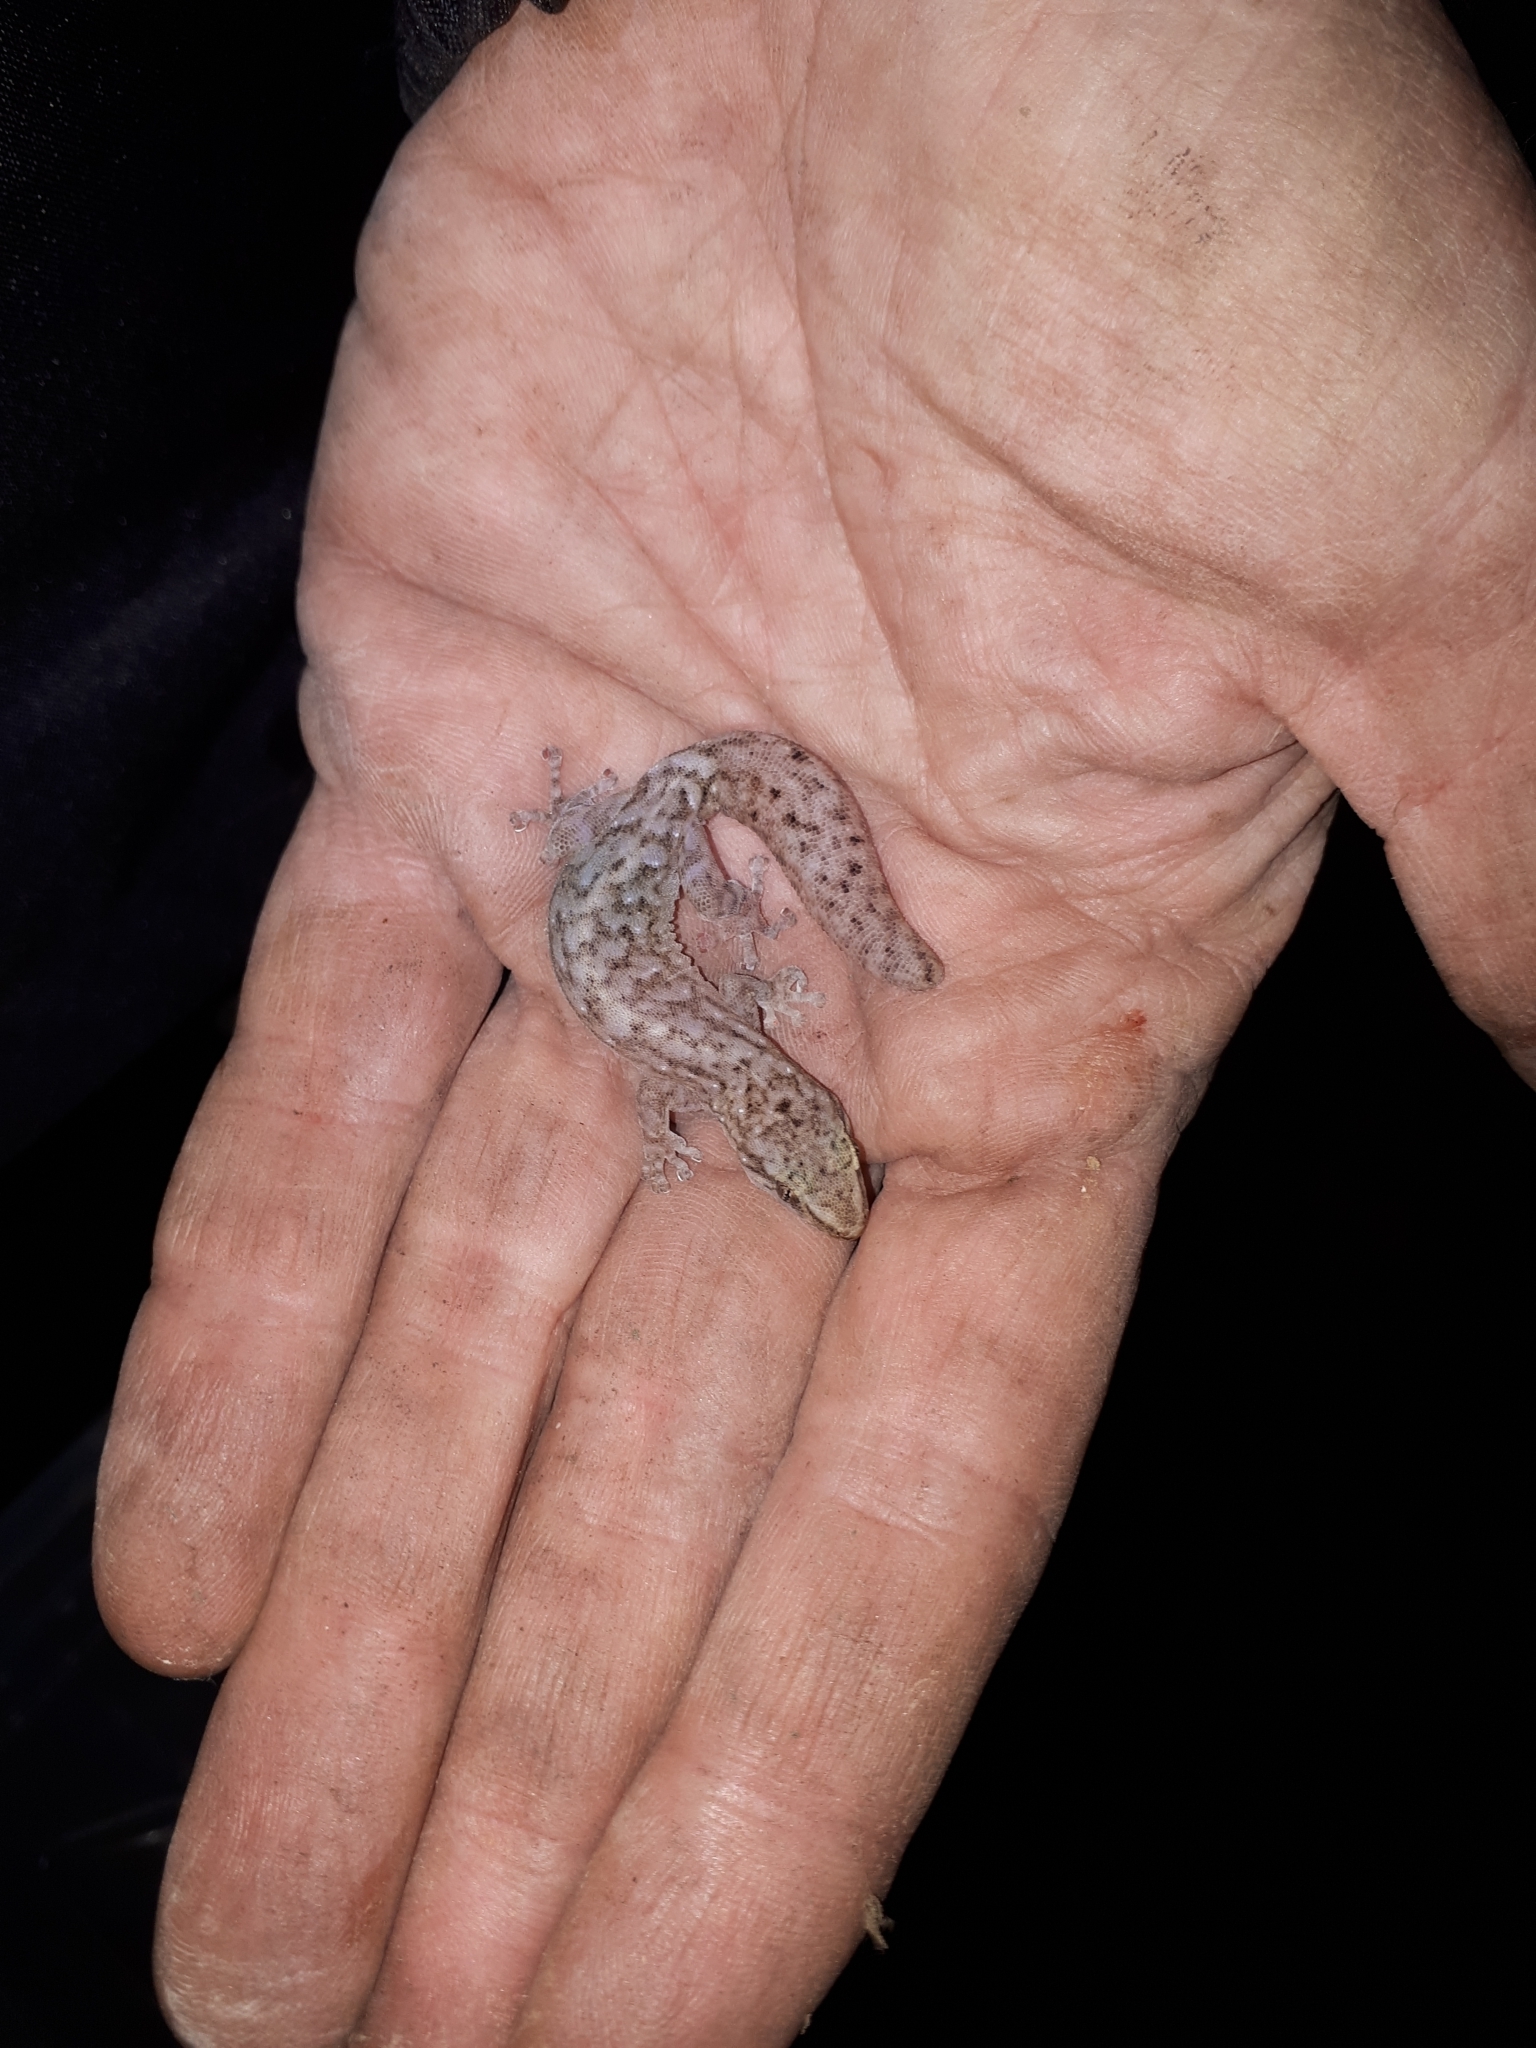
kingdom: Animalia
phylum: Chordata
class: Squamata
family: Gekkonidae
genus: Afrogecko
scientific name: Afrogecko porphyreus
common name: Marbled leaf-toed gecko
